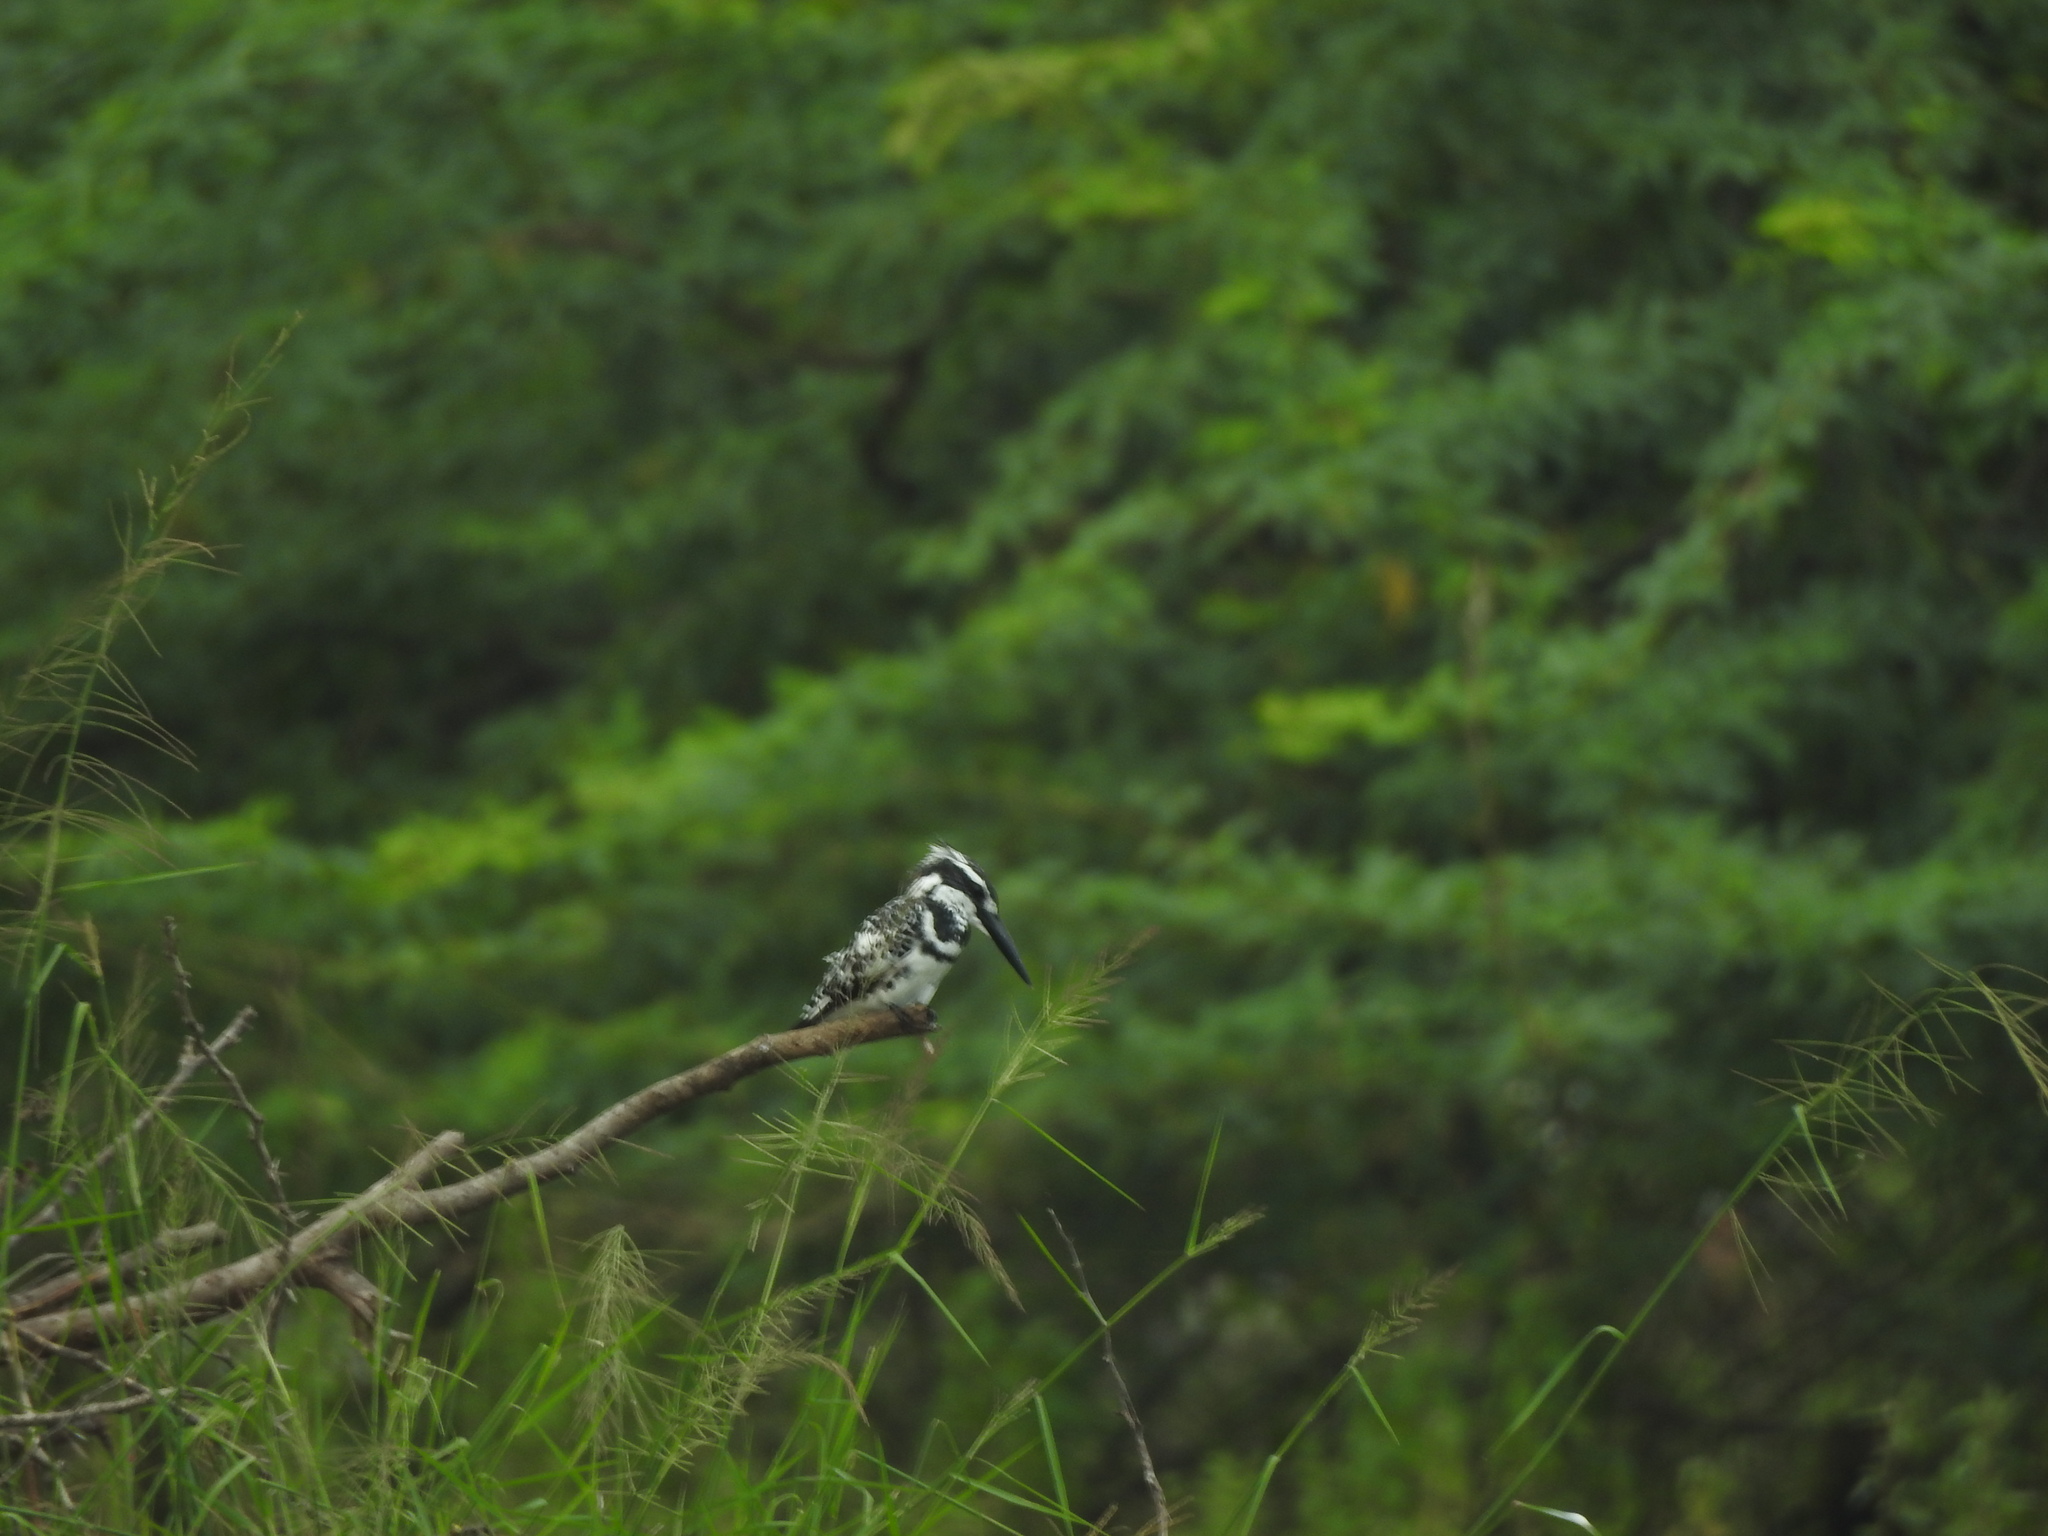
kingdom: Animalia
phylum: Chordata
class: Aves
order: Coraciiformes
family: Alcedinidae
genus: Ceryle
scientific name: Ceryle rudis
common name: Pied kingfisher
